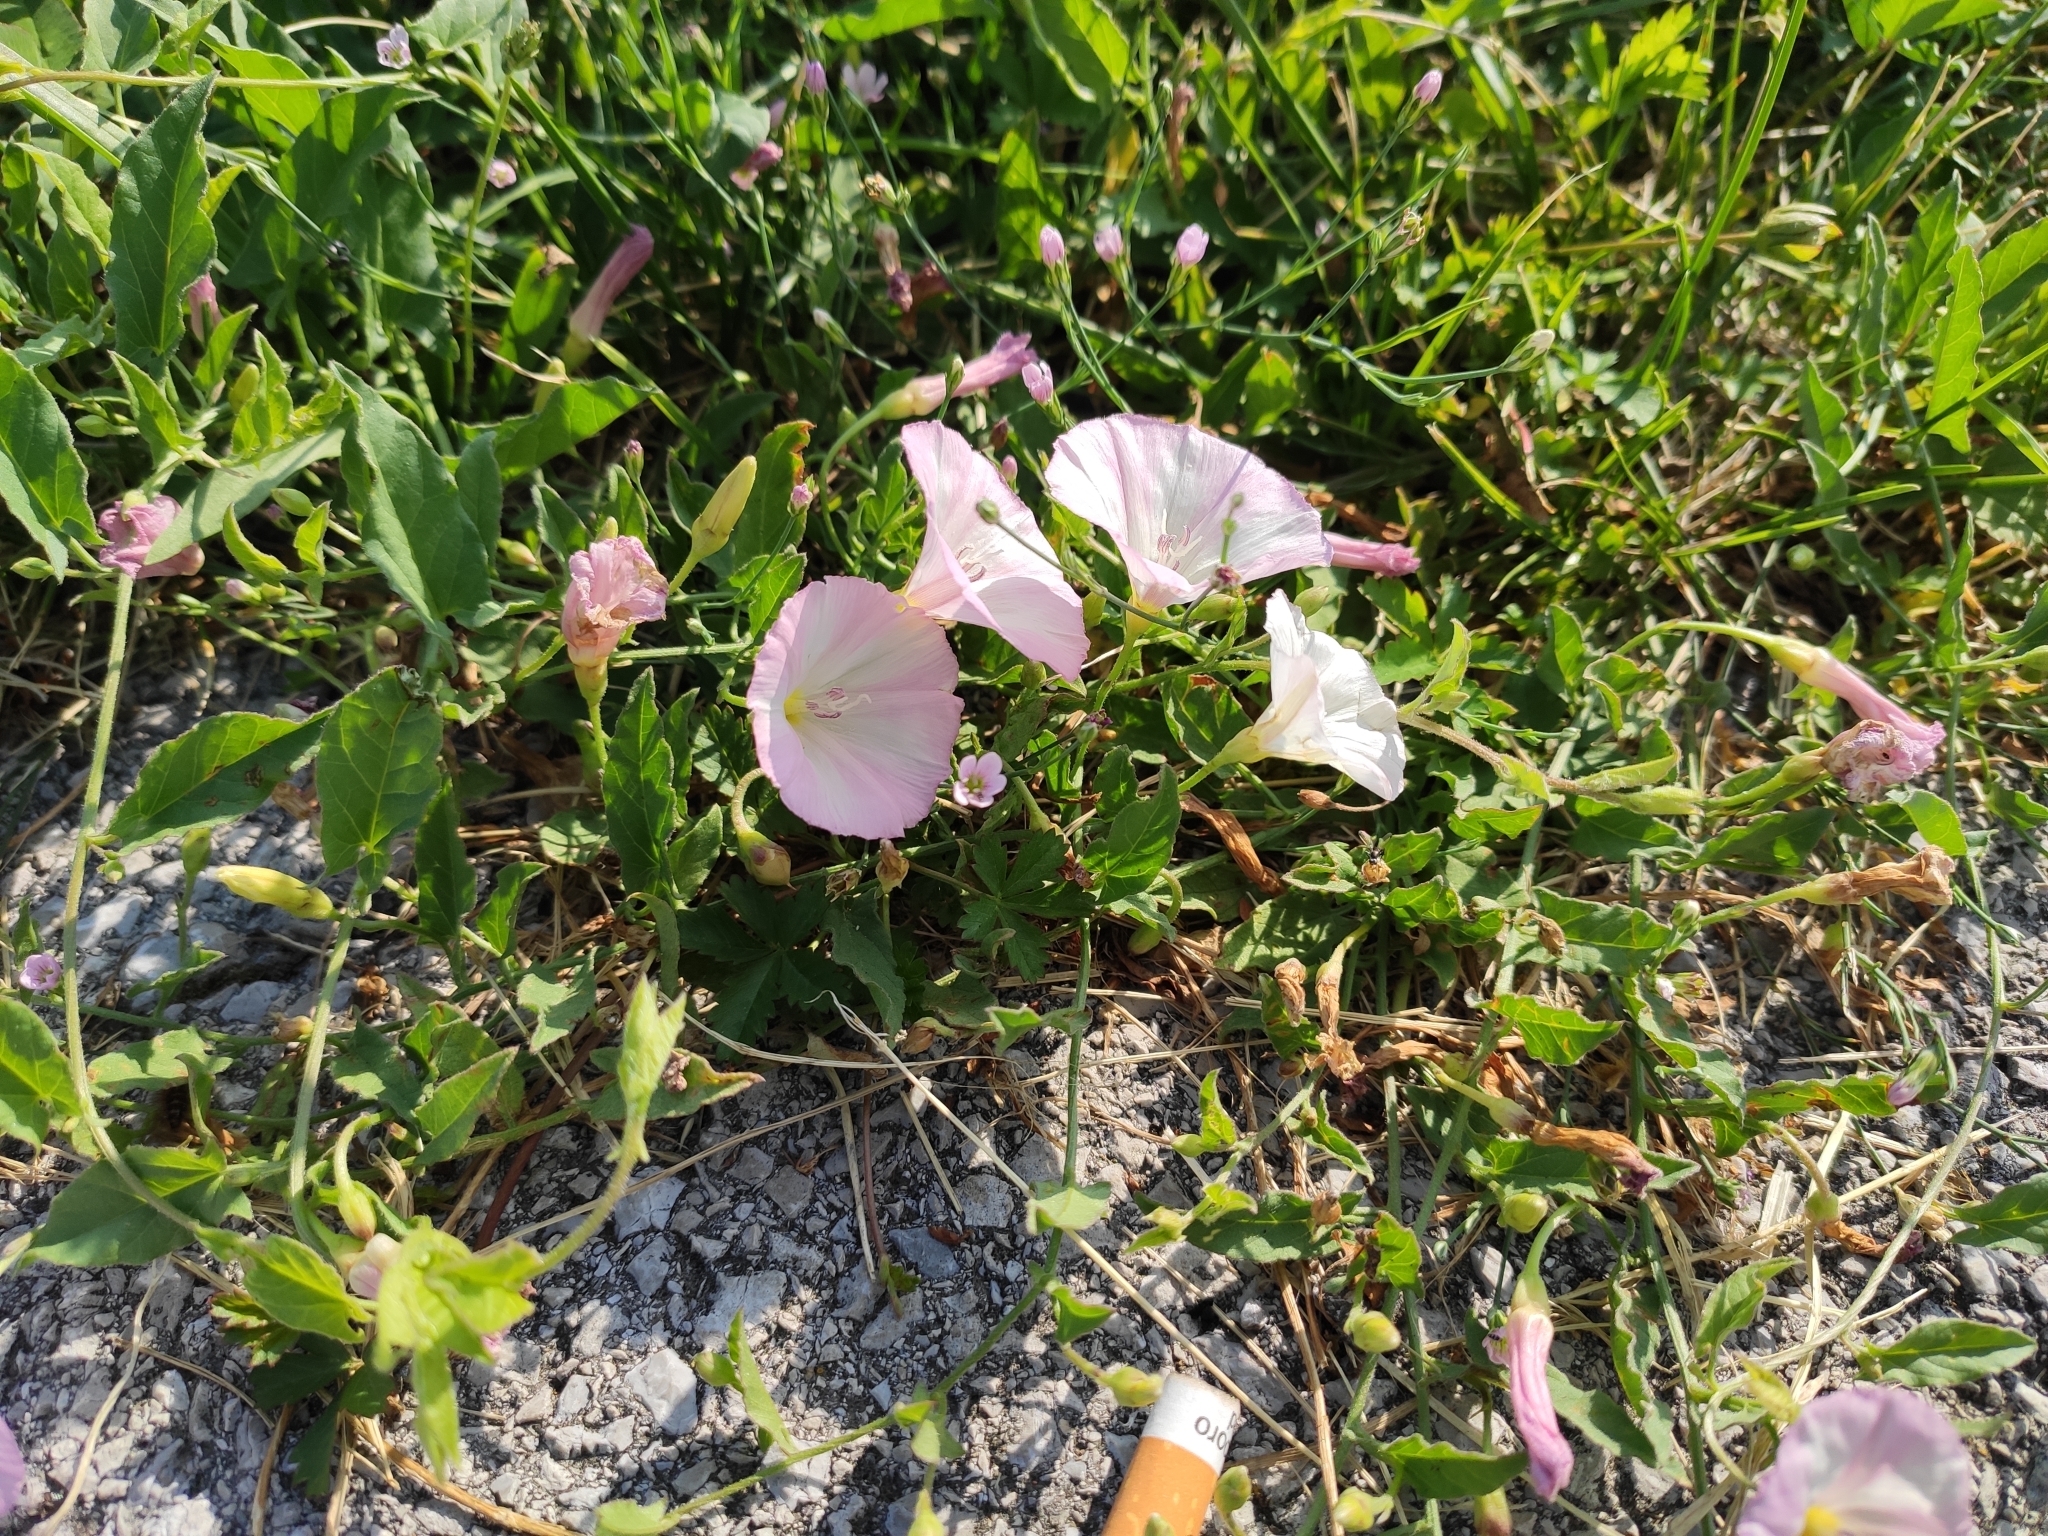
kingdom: Plantae
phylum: Tracheophyta
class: Magnoliopsida
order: Solanales
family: Convolvulaceae
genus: Convolvulus
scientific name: Convolvulus arvensis
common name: Field bindweed
